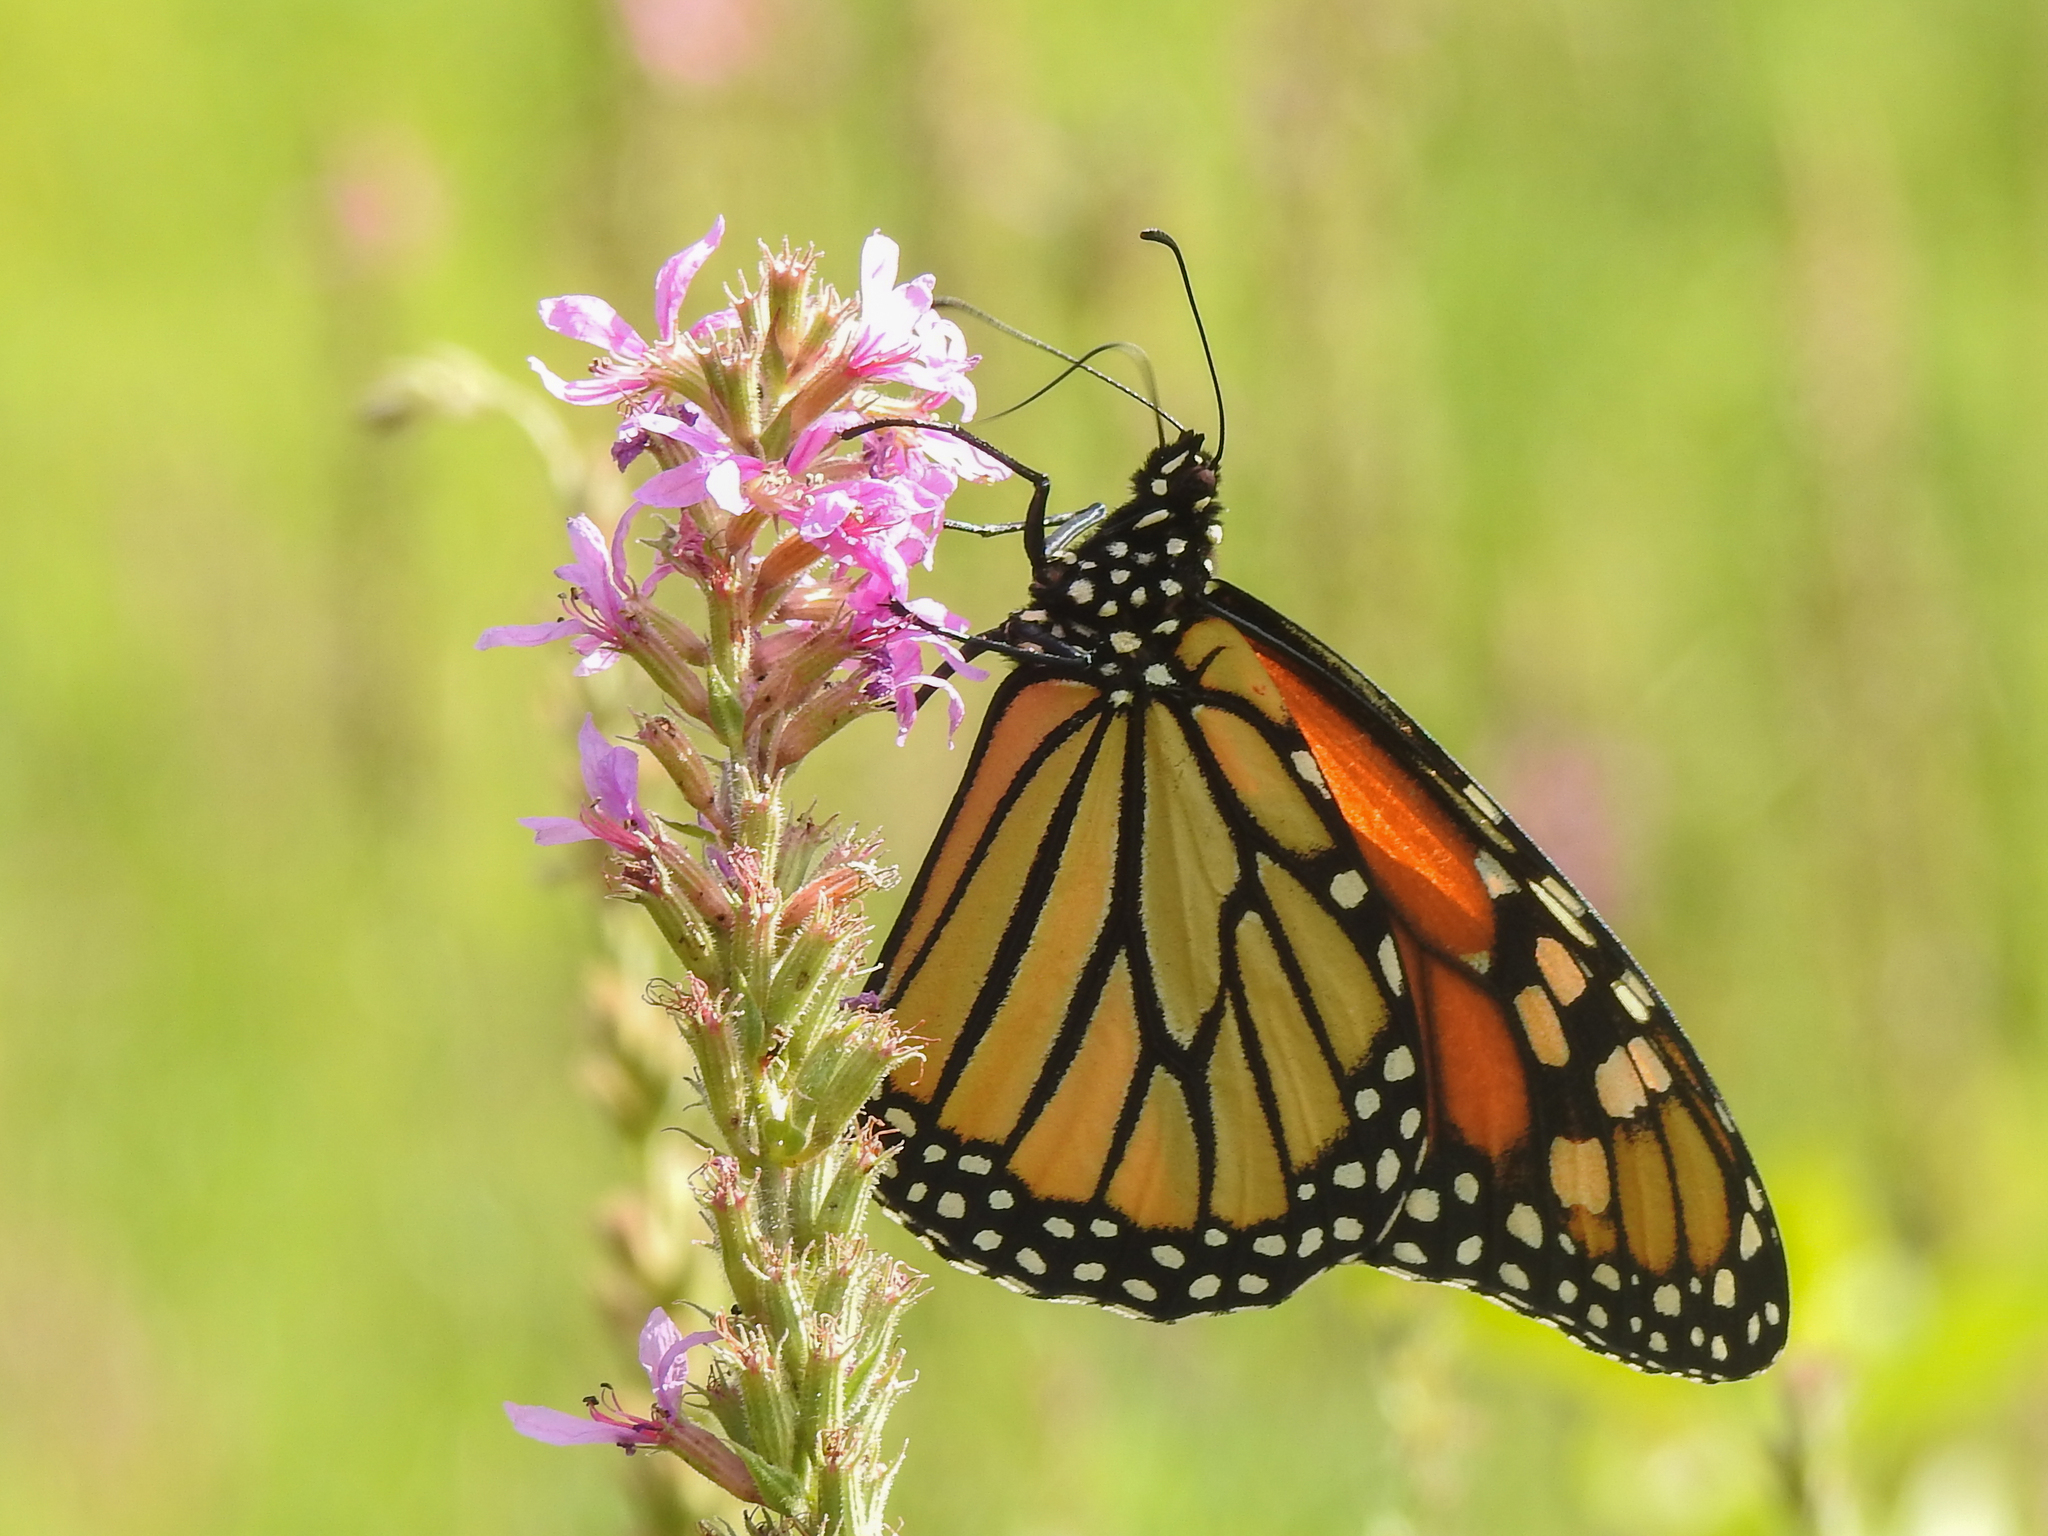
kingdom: Animalia
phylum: Arthropoda
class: Insecta
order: Lepidoptera
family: Nymphalidae
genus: Danaus
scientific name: Danaus plexippus
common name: Monarch
